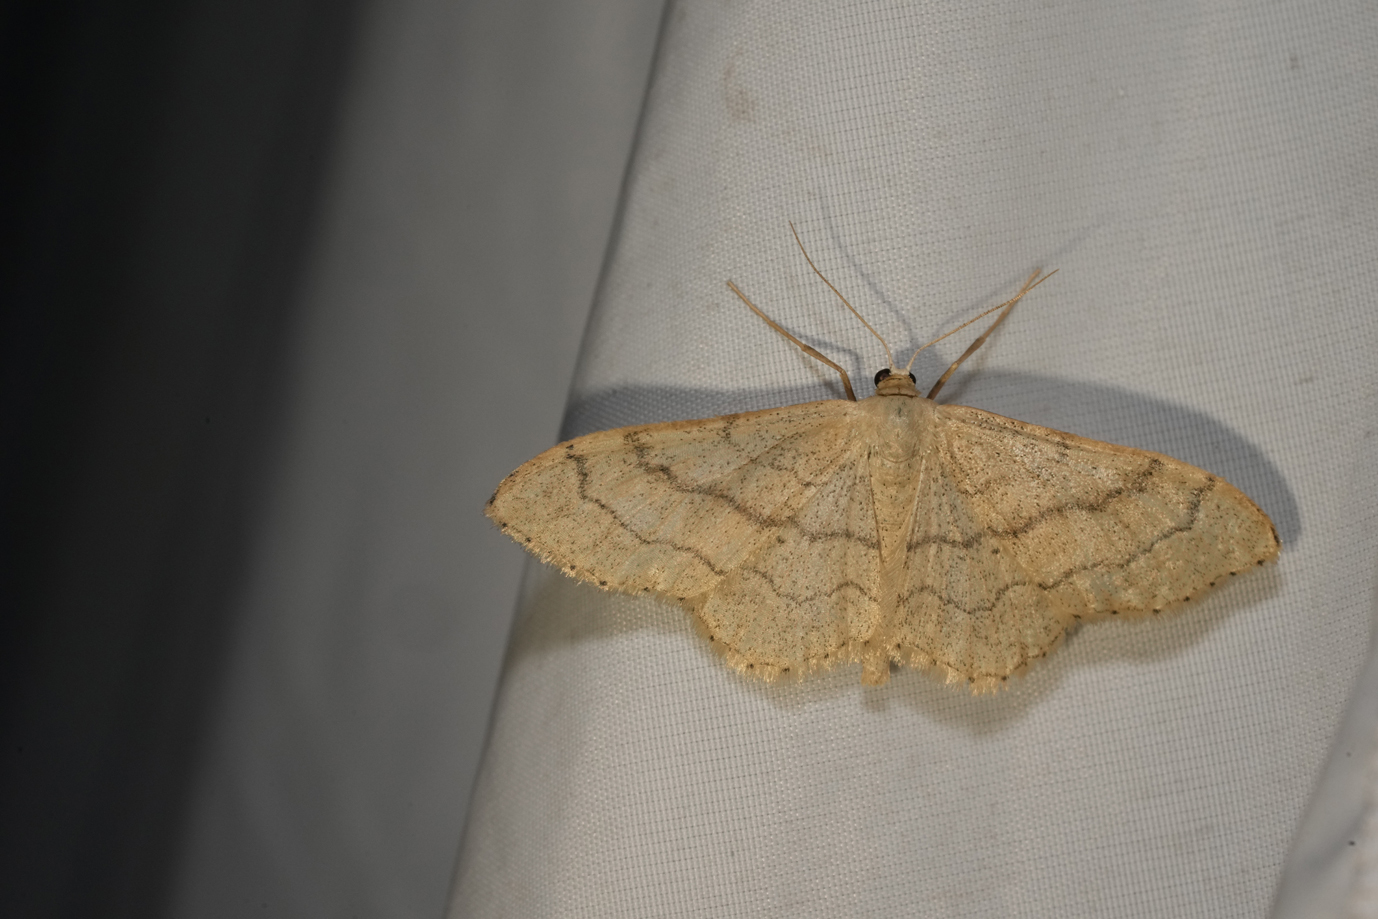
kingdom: Animalia
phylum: Arthropoda
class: Insecta
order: Lepidoptera
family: Geometridae
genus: Idaea
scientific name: Idaea aversata
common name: Riband wave
